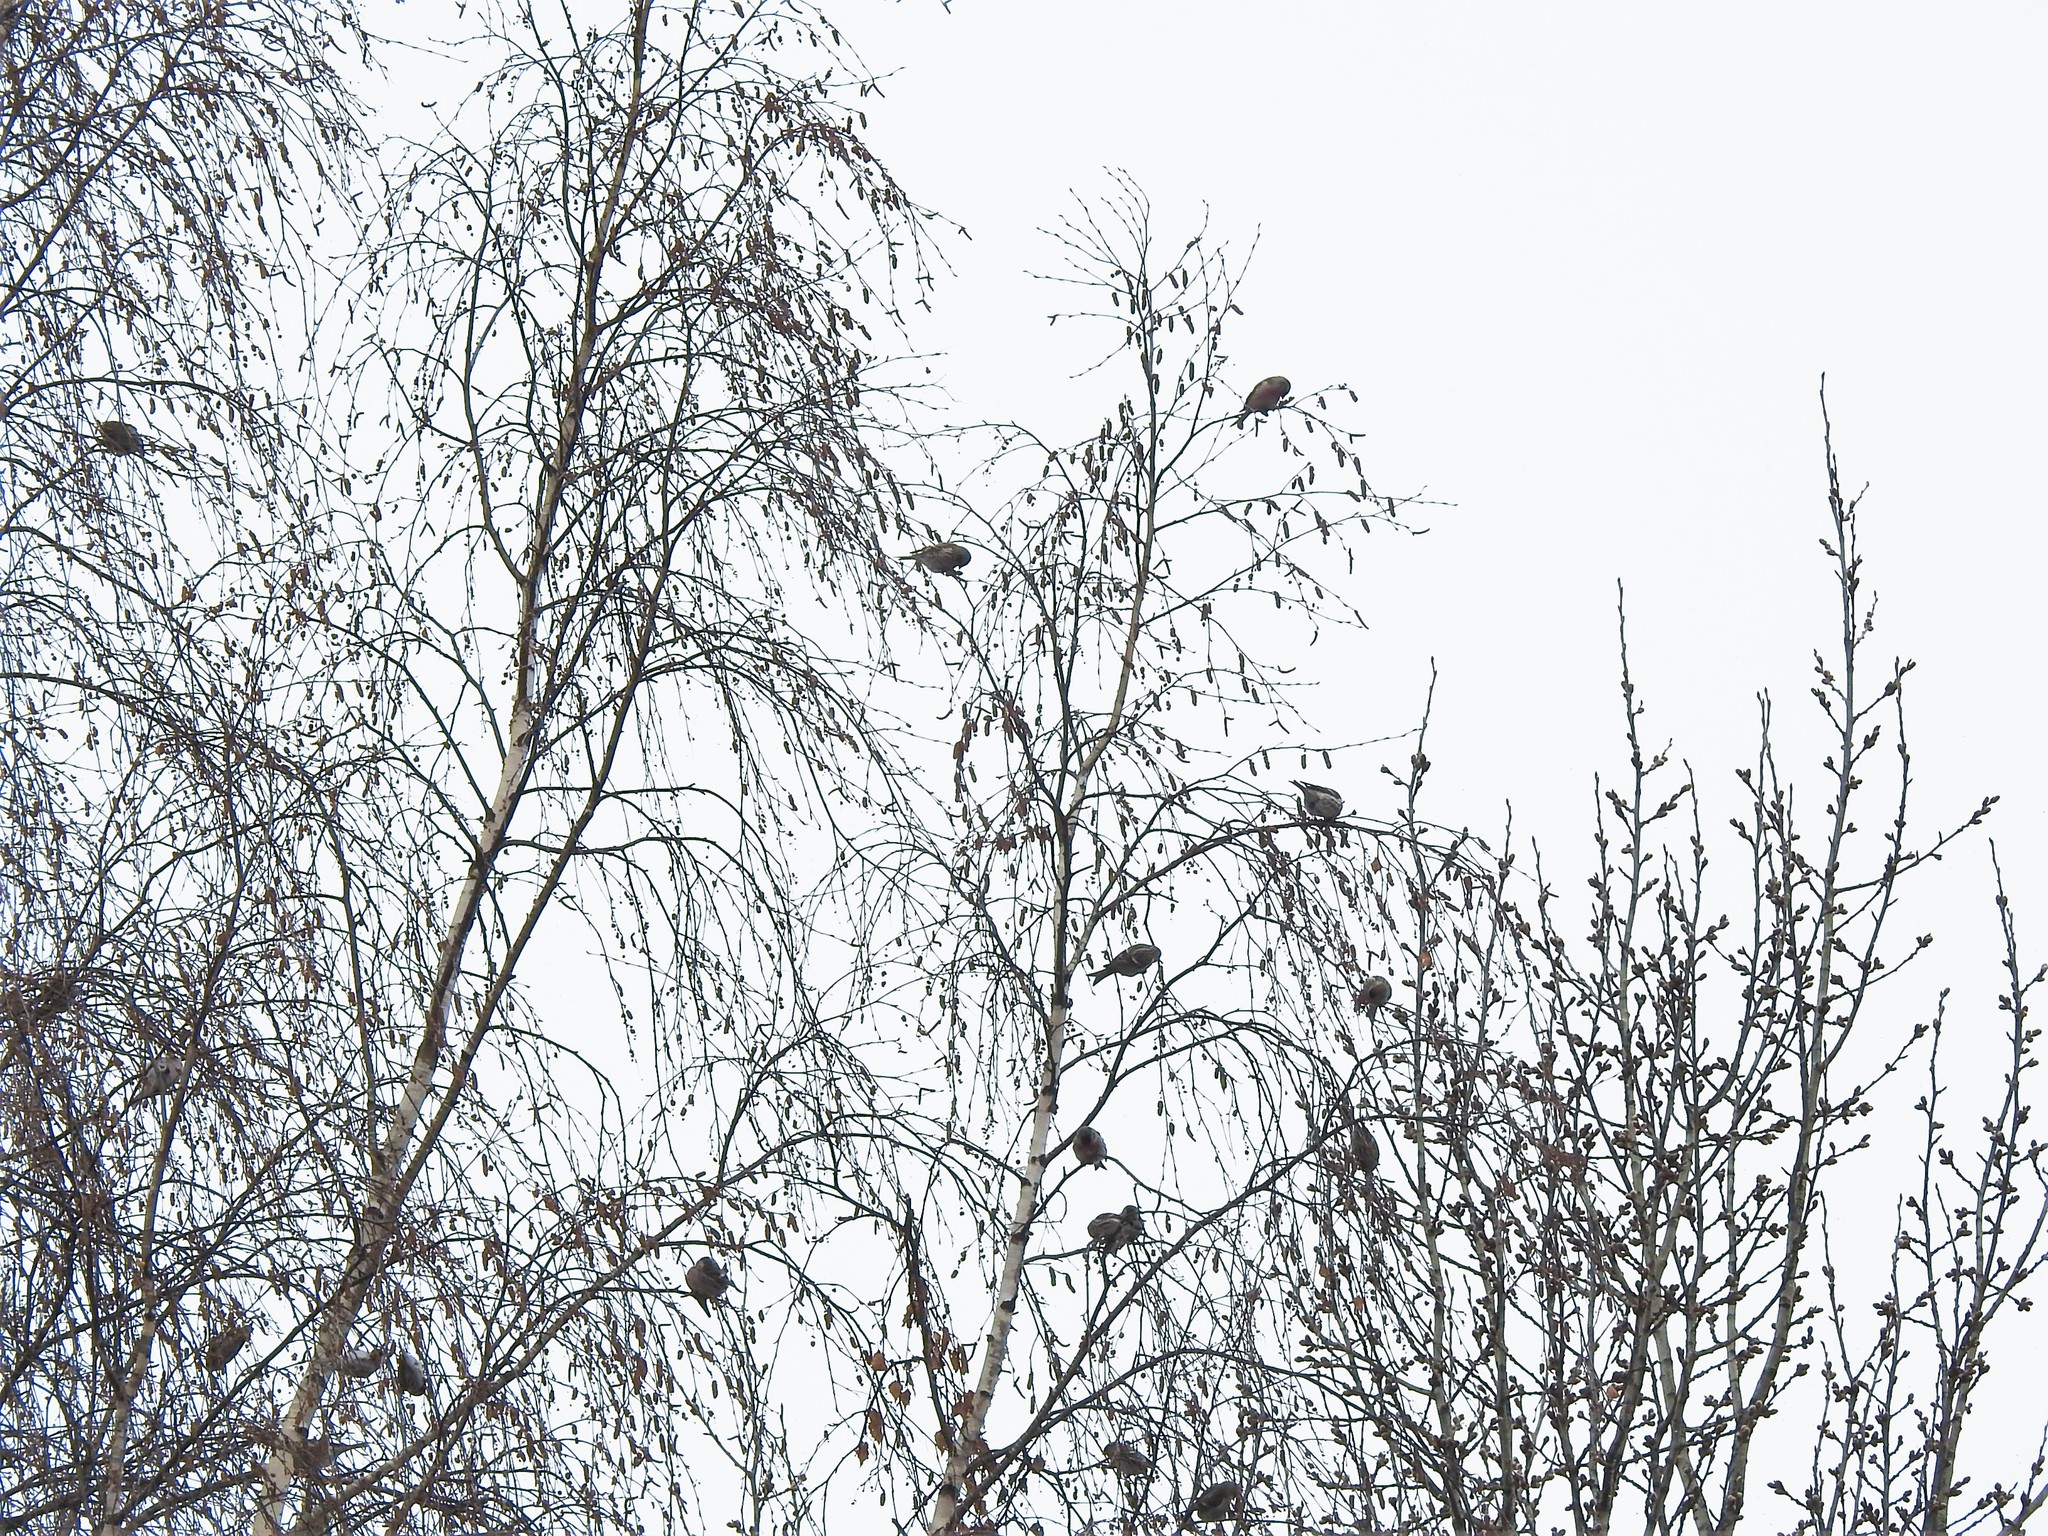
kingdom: Animalia
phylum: Chordata
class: Aves
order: Passeriformes
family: Fringillidae
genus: Acanthis
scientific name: Acanthis flammea
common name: Common redpoll
